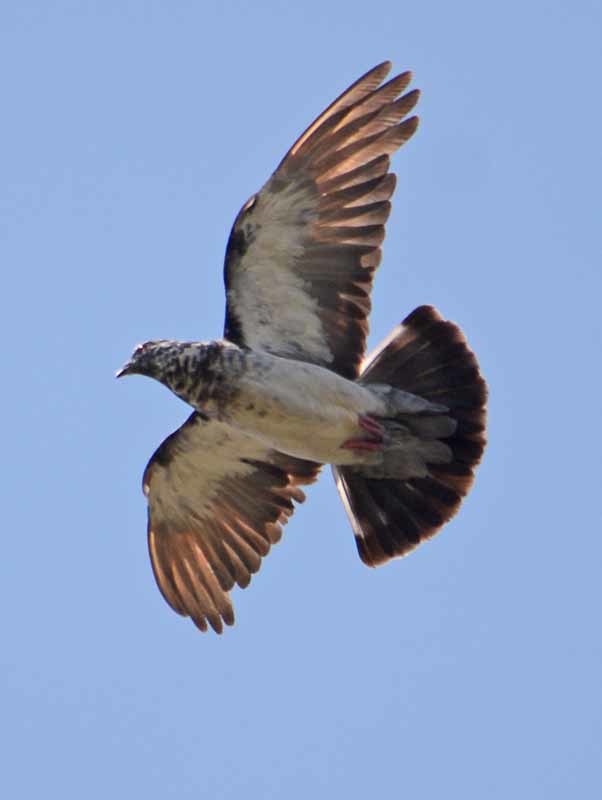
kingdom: Animalia
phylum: Chordata
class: Aves
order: Columbiformes
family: Columbidae
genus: Columba
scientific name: Columba livia
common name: Rock pigeon
